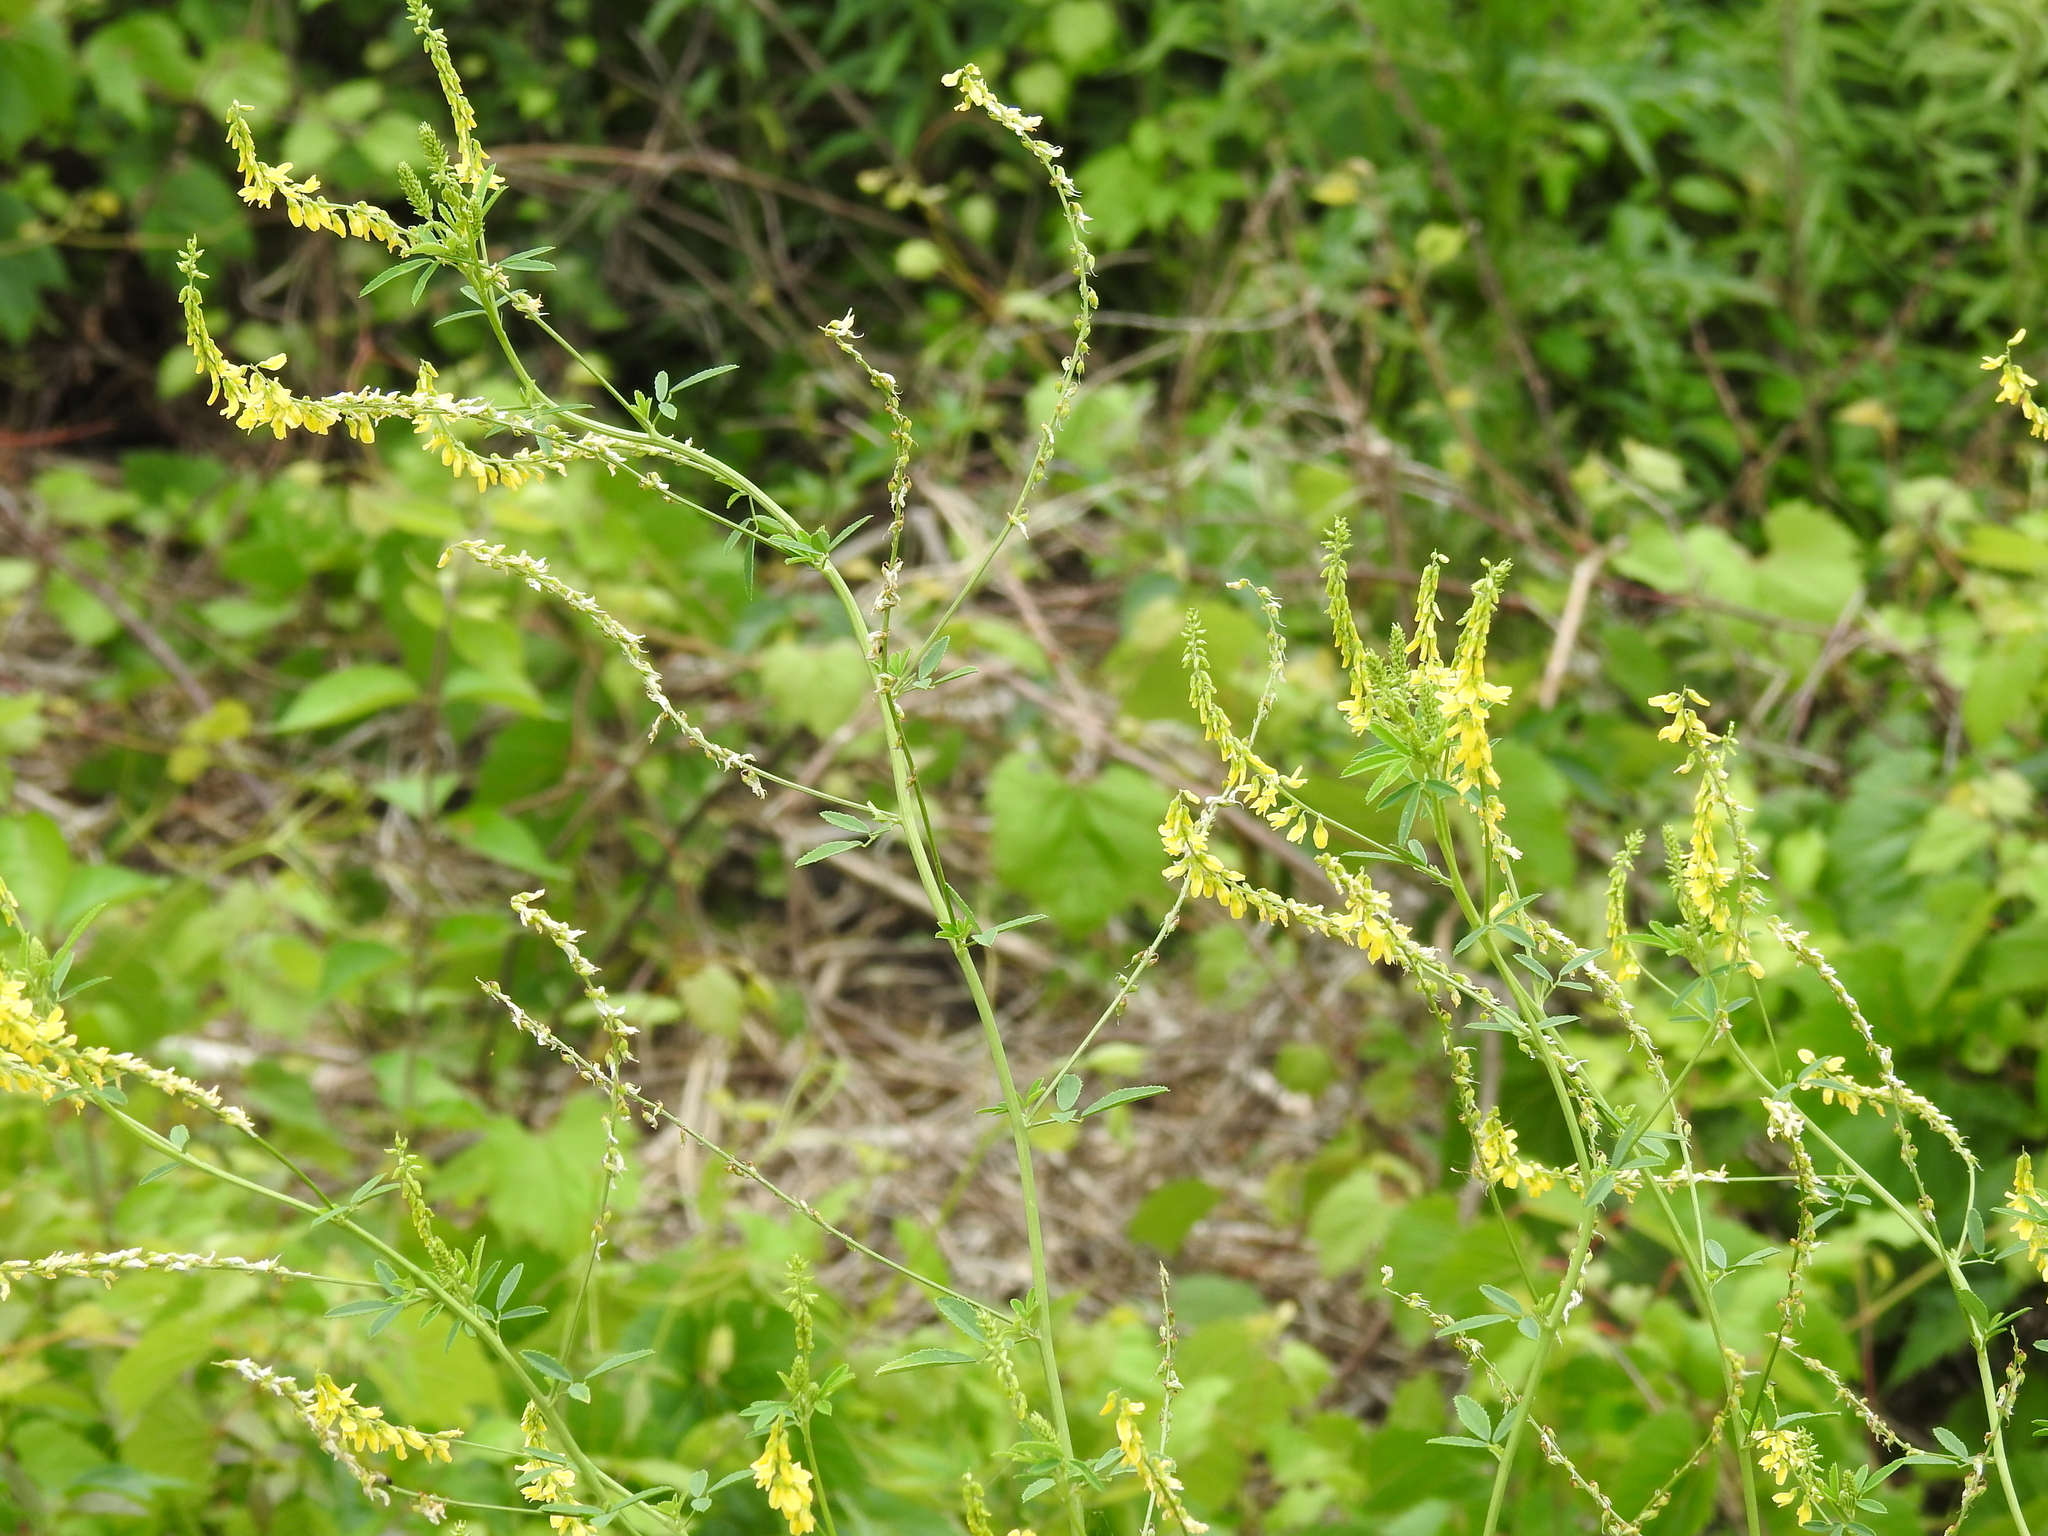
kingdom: Plantae
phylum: Tracheophyta
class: Magnoliopsida
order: Fabales
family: Fabaceae
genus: Melilotus
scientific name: Melilotus officinalis
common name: Sweetclover
